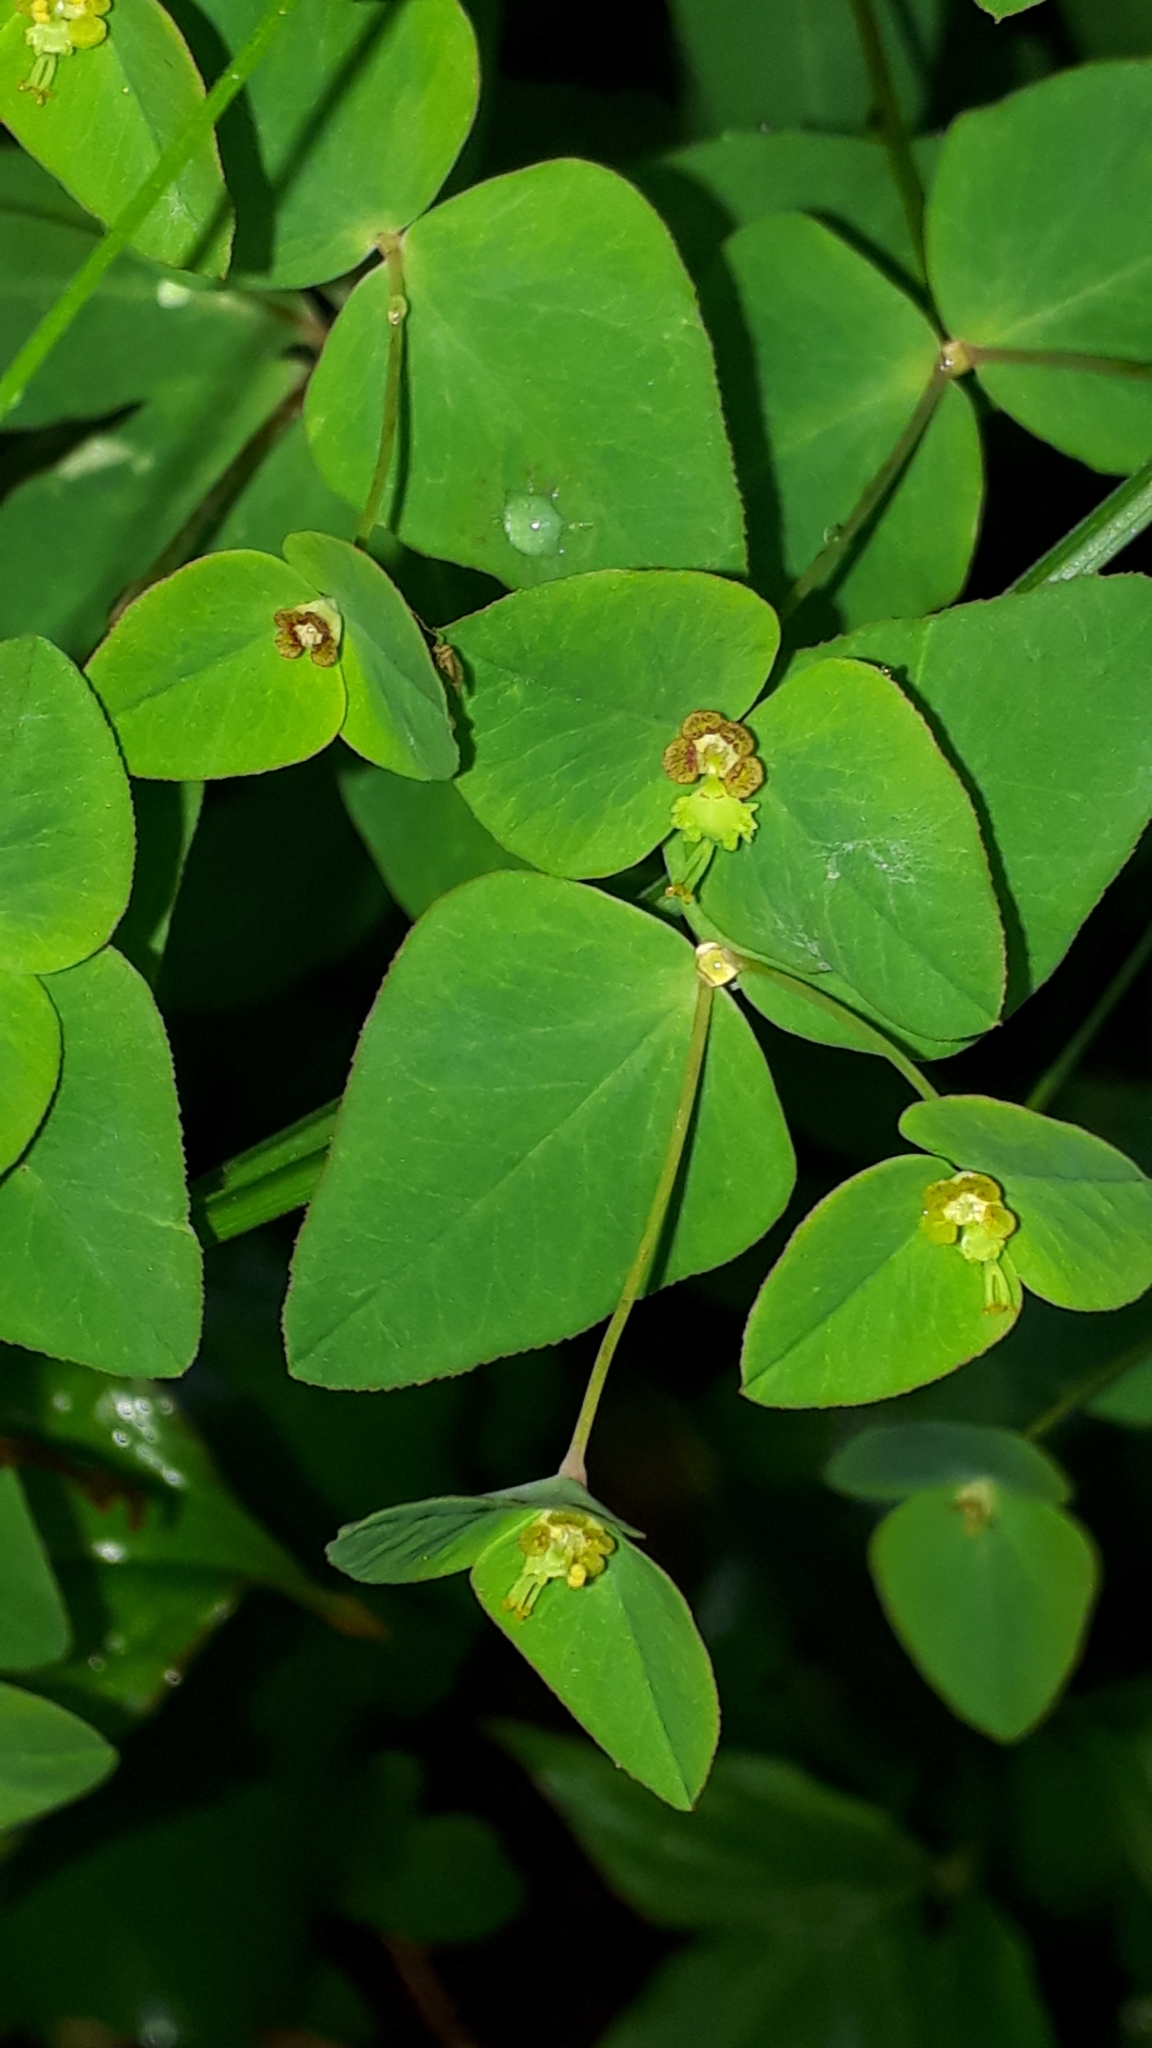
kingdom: Plantae
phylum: Tracheophyta
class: Magnoliopsida
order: Malpighiales
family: Euphorbiaceae
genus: Euphorbia
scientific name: Euphorbia dulcis
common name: Sweet spurge
